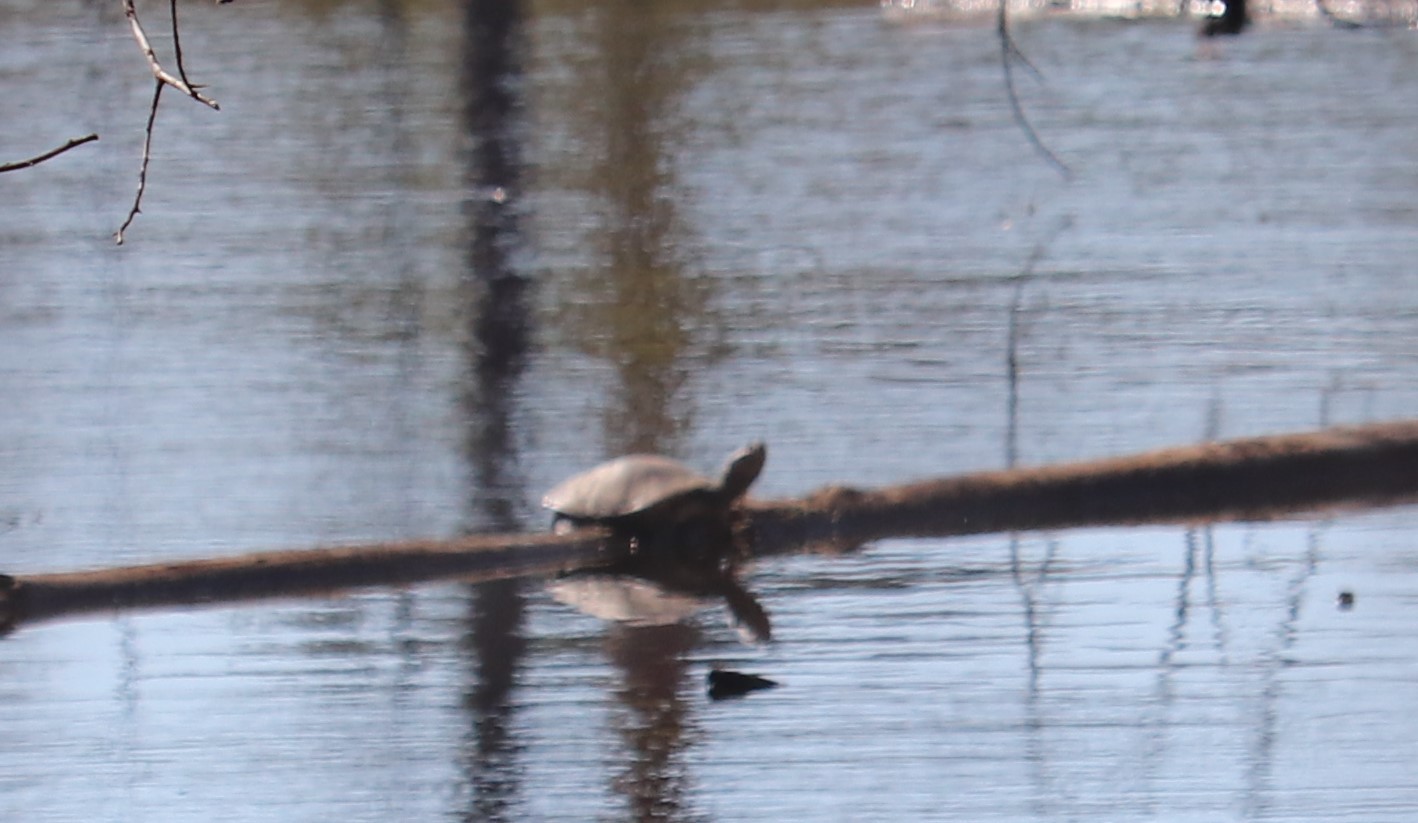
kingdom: Animalia
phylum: Chordata
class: Testudines
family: Pelomedusidae
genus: Pelomedusa
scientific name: Pelomedusa galeata
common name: South african helmeted terrapin
